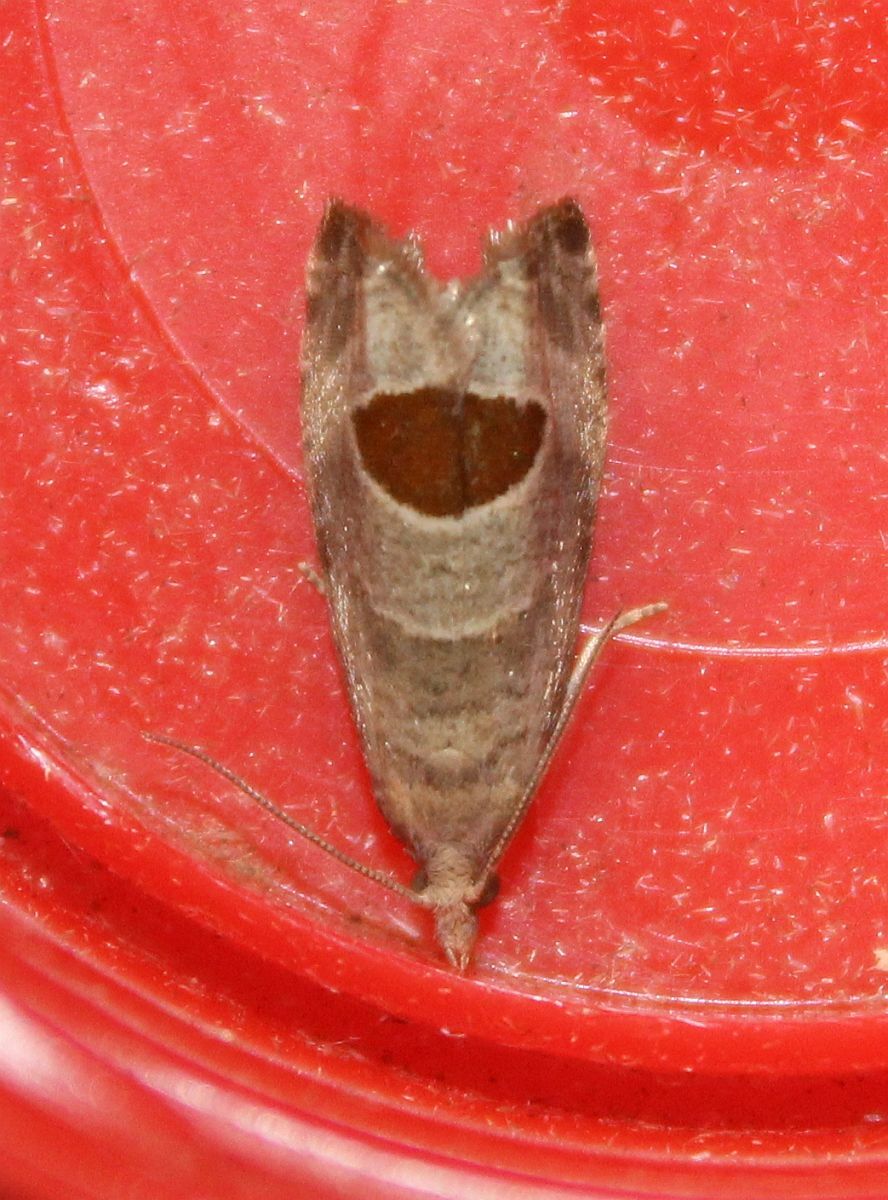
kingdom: Animalia
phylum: Arthropoda
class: Insecta
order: Lepidoptera
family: Tortricidae
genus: Notocelia
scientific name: Notocelia uddmanniana
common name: Bramble shoot moth
